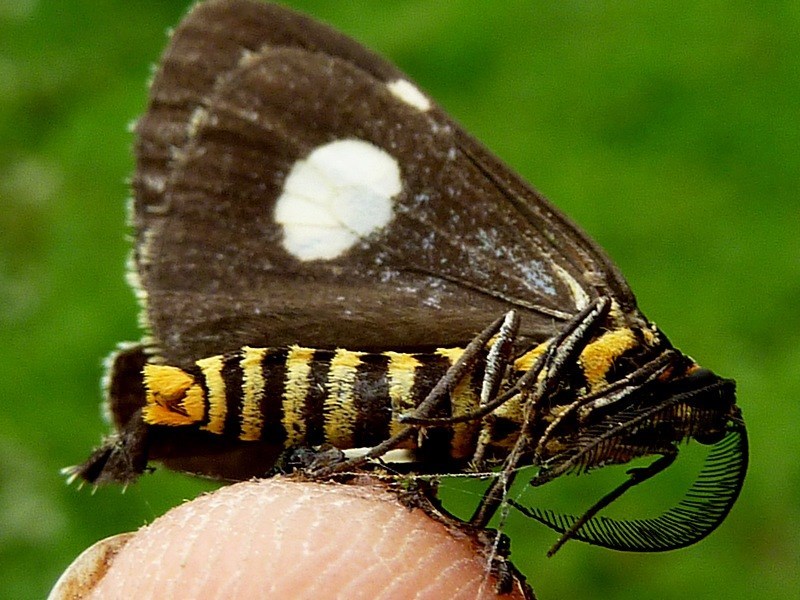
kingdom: Animalia
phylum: Arthropoda
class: Insecta
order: Lepidoptera
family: Erebidae
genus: Nyctemera
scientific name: Nyctemera amicus
